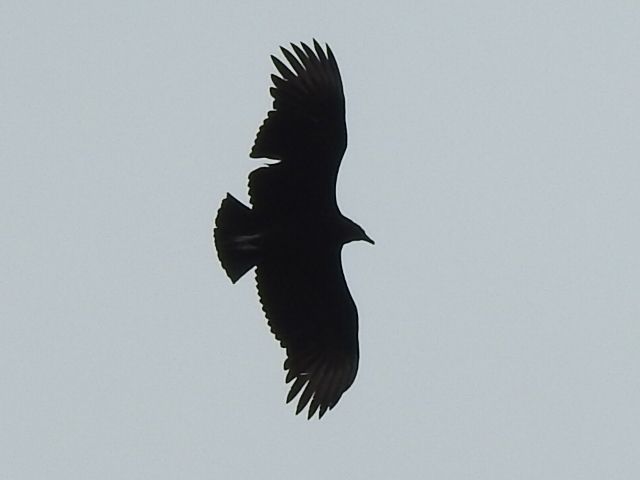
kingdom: Animalia
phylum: Chordata
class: Aves
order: Accipitriformes
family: Cathartidae
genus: Coragyps
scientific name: Coragyps atratus
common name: Black vulture
